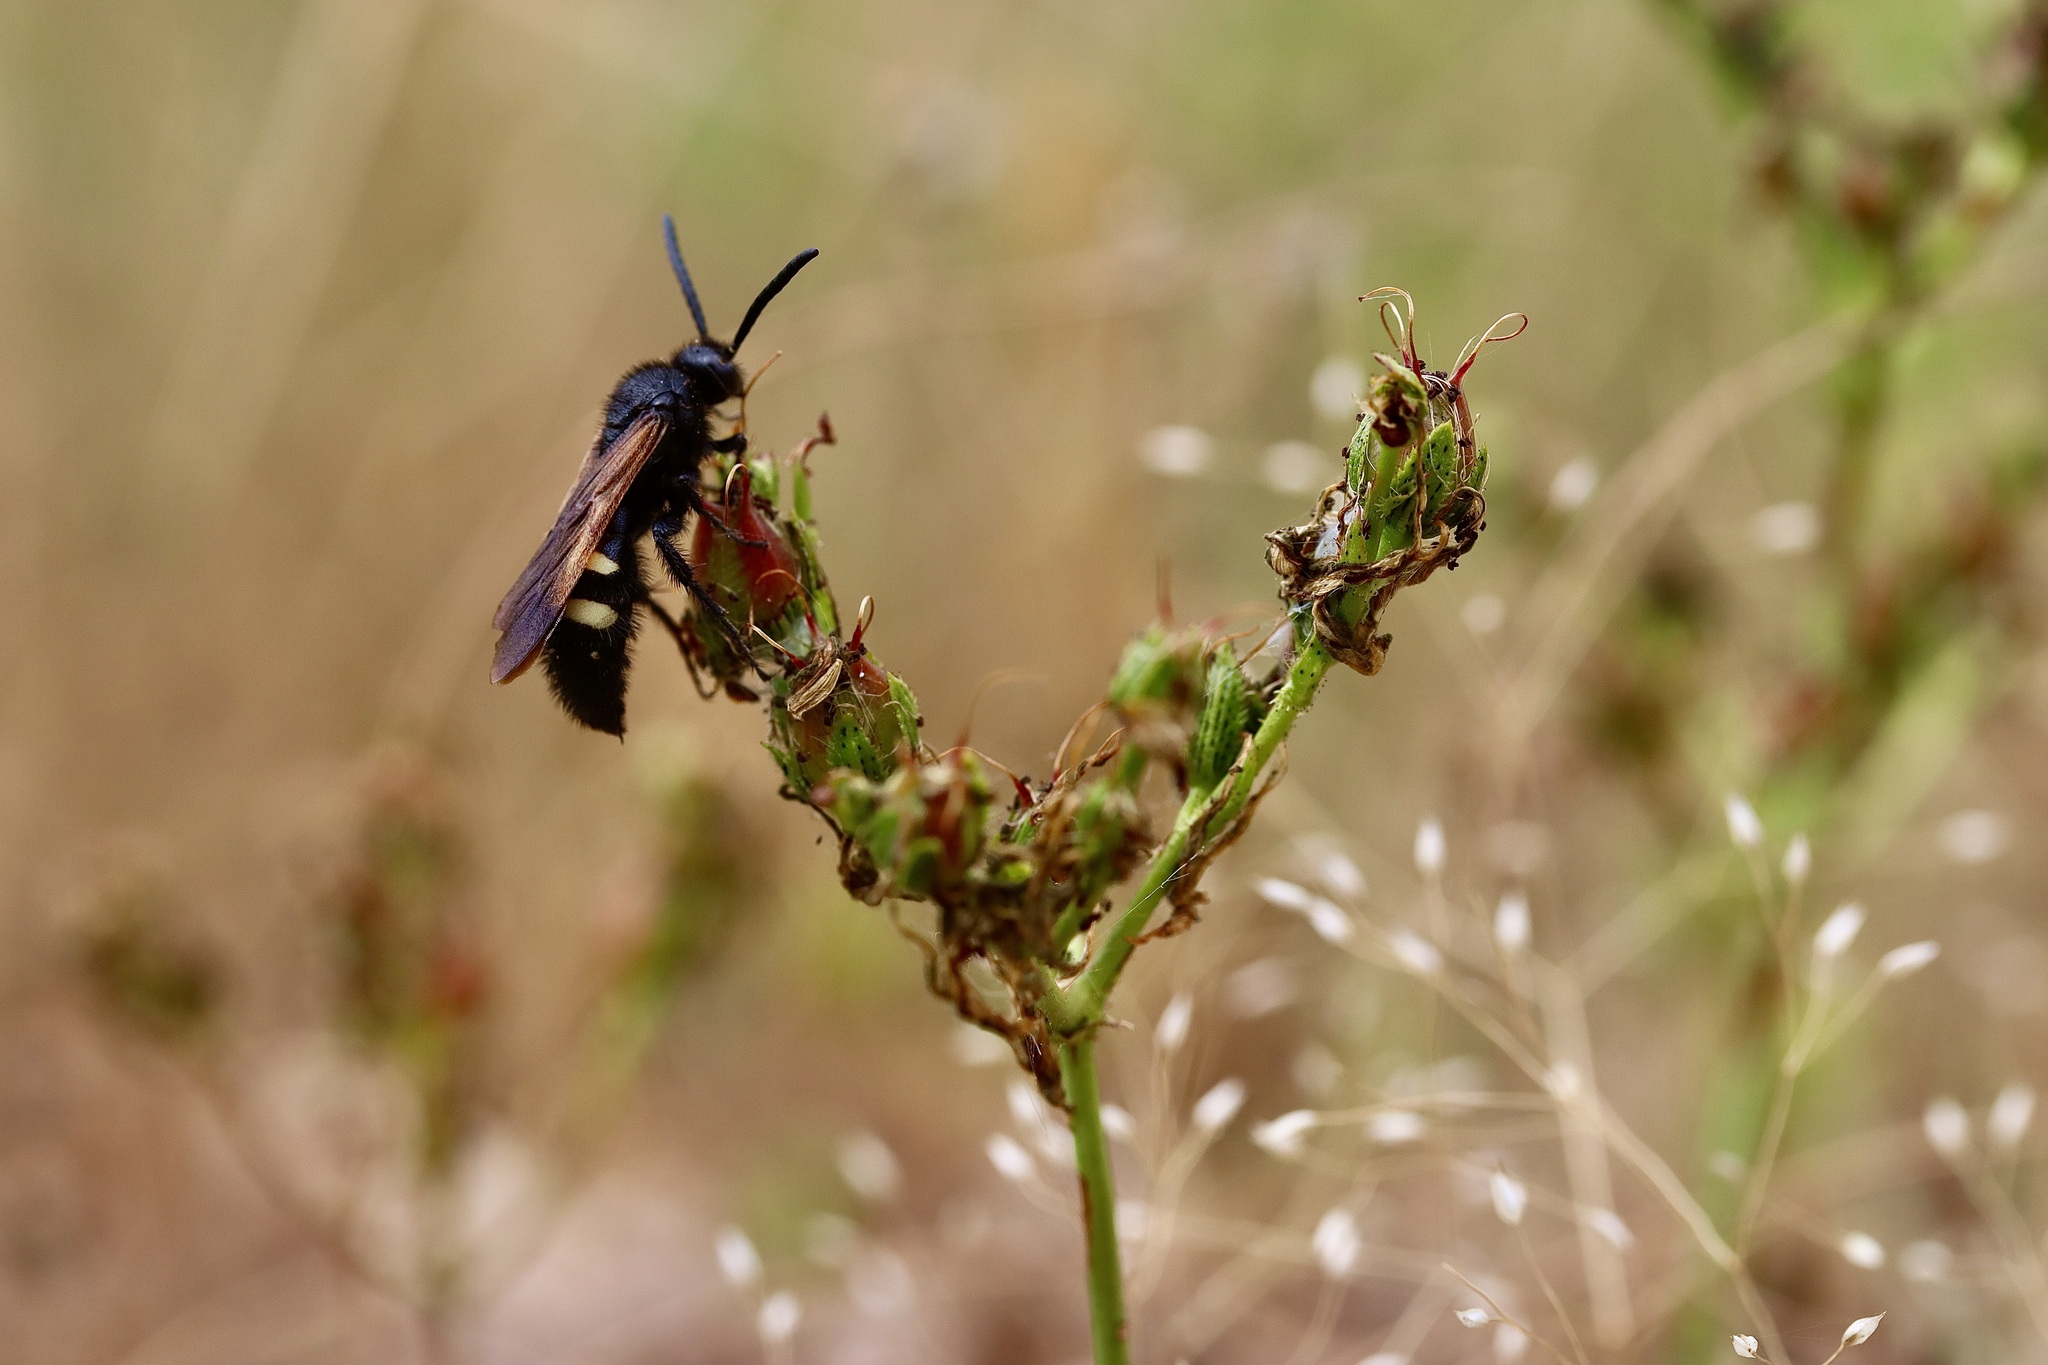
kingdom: Animalia
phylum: Arthropoda
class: Insecta
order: Hymenoptera
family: Vespidae
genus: Vespa
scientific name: Vespa sexmaculata
